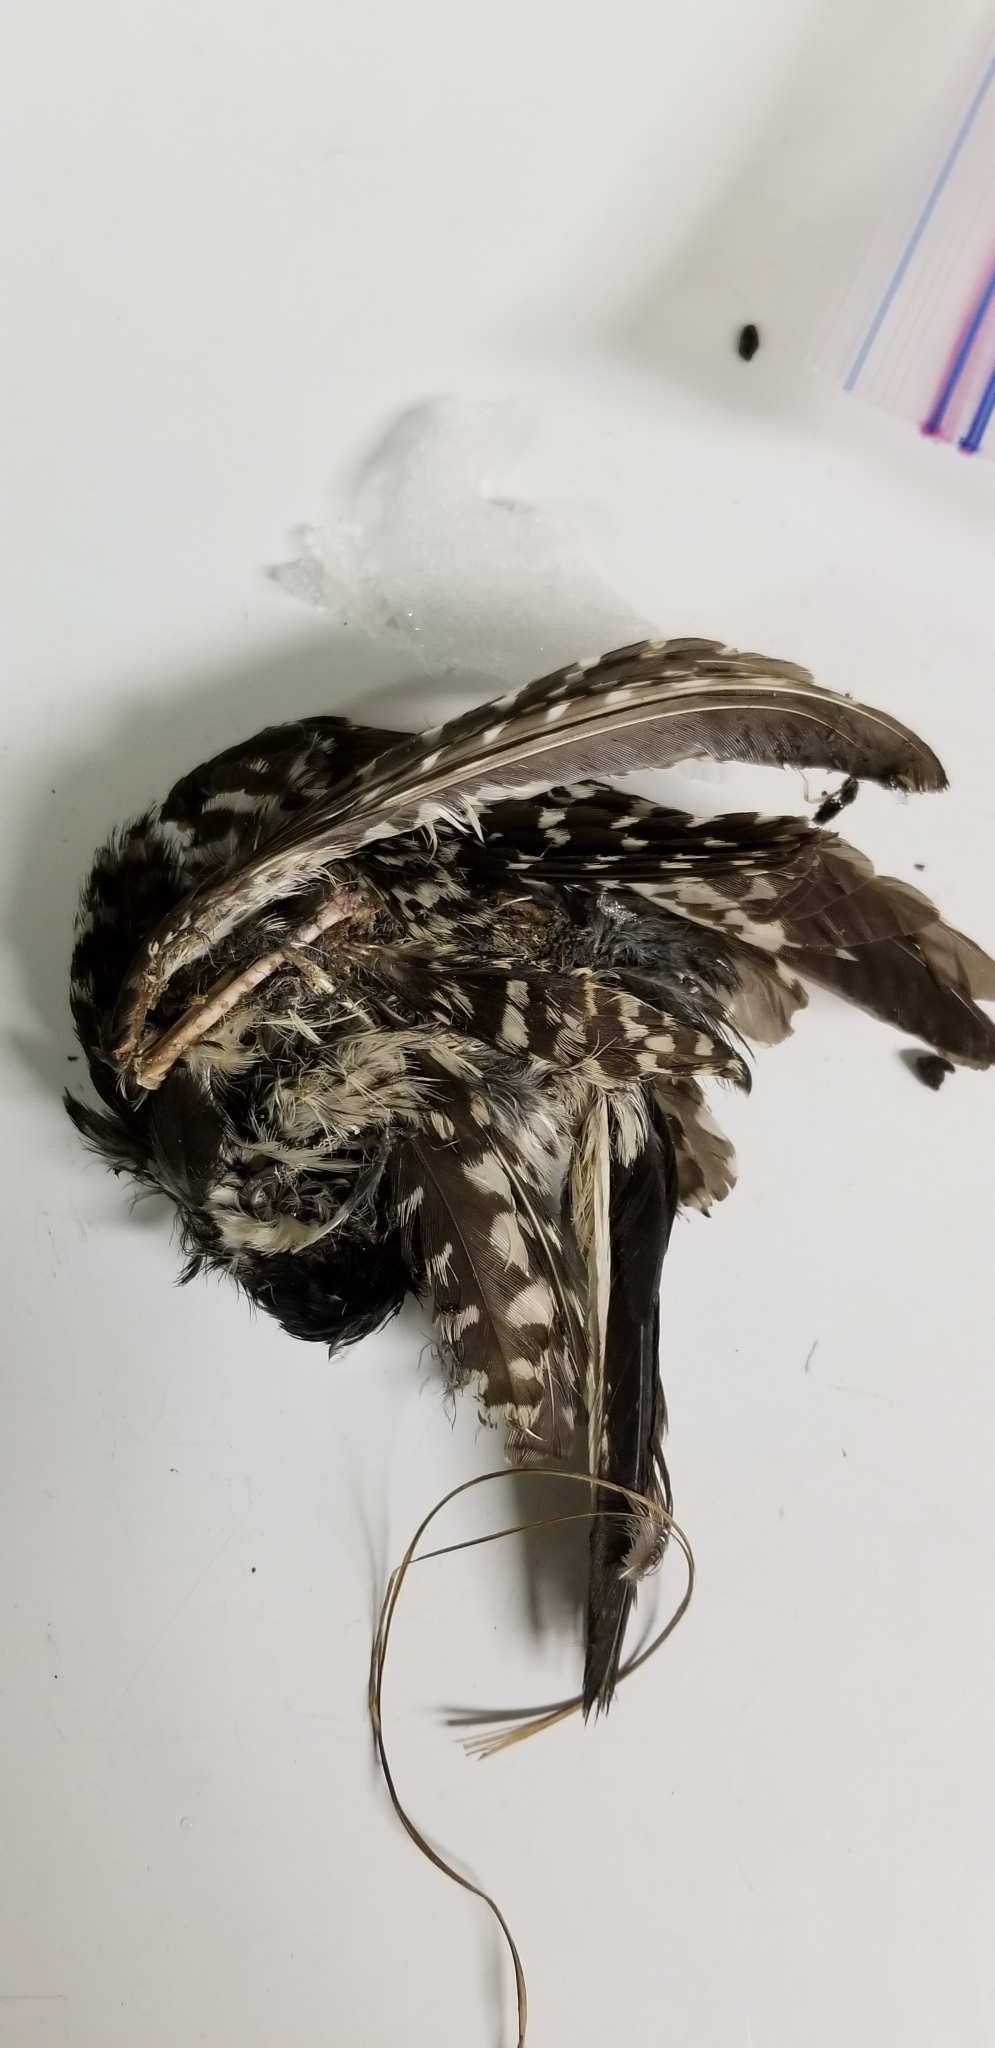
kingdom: Animalia
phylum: Chordata
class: Aves
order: Piciformes
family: Picidae
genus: Leuconotopicus
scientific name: Leuconotopicus borealis
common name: Red-cockaded woodpecker
